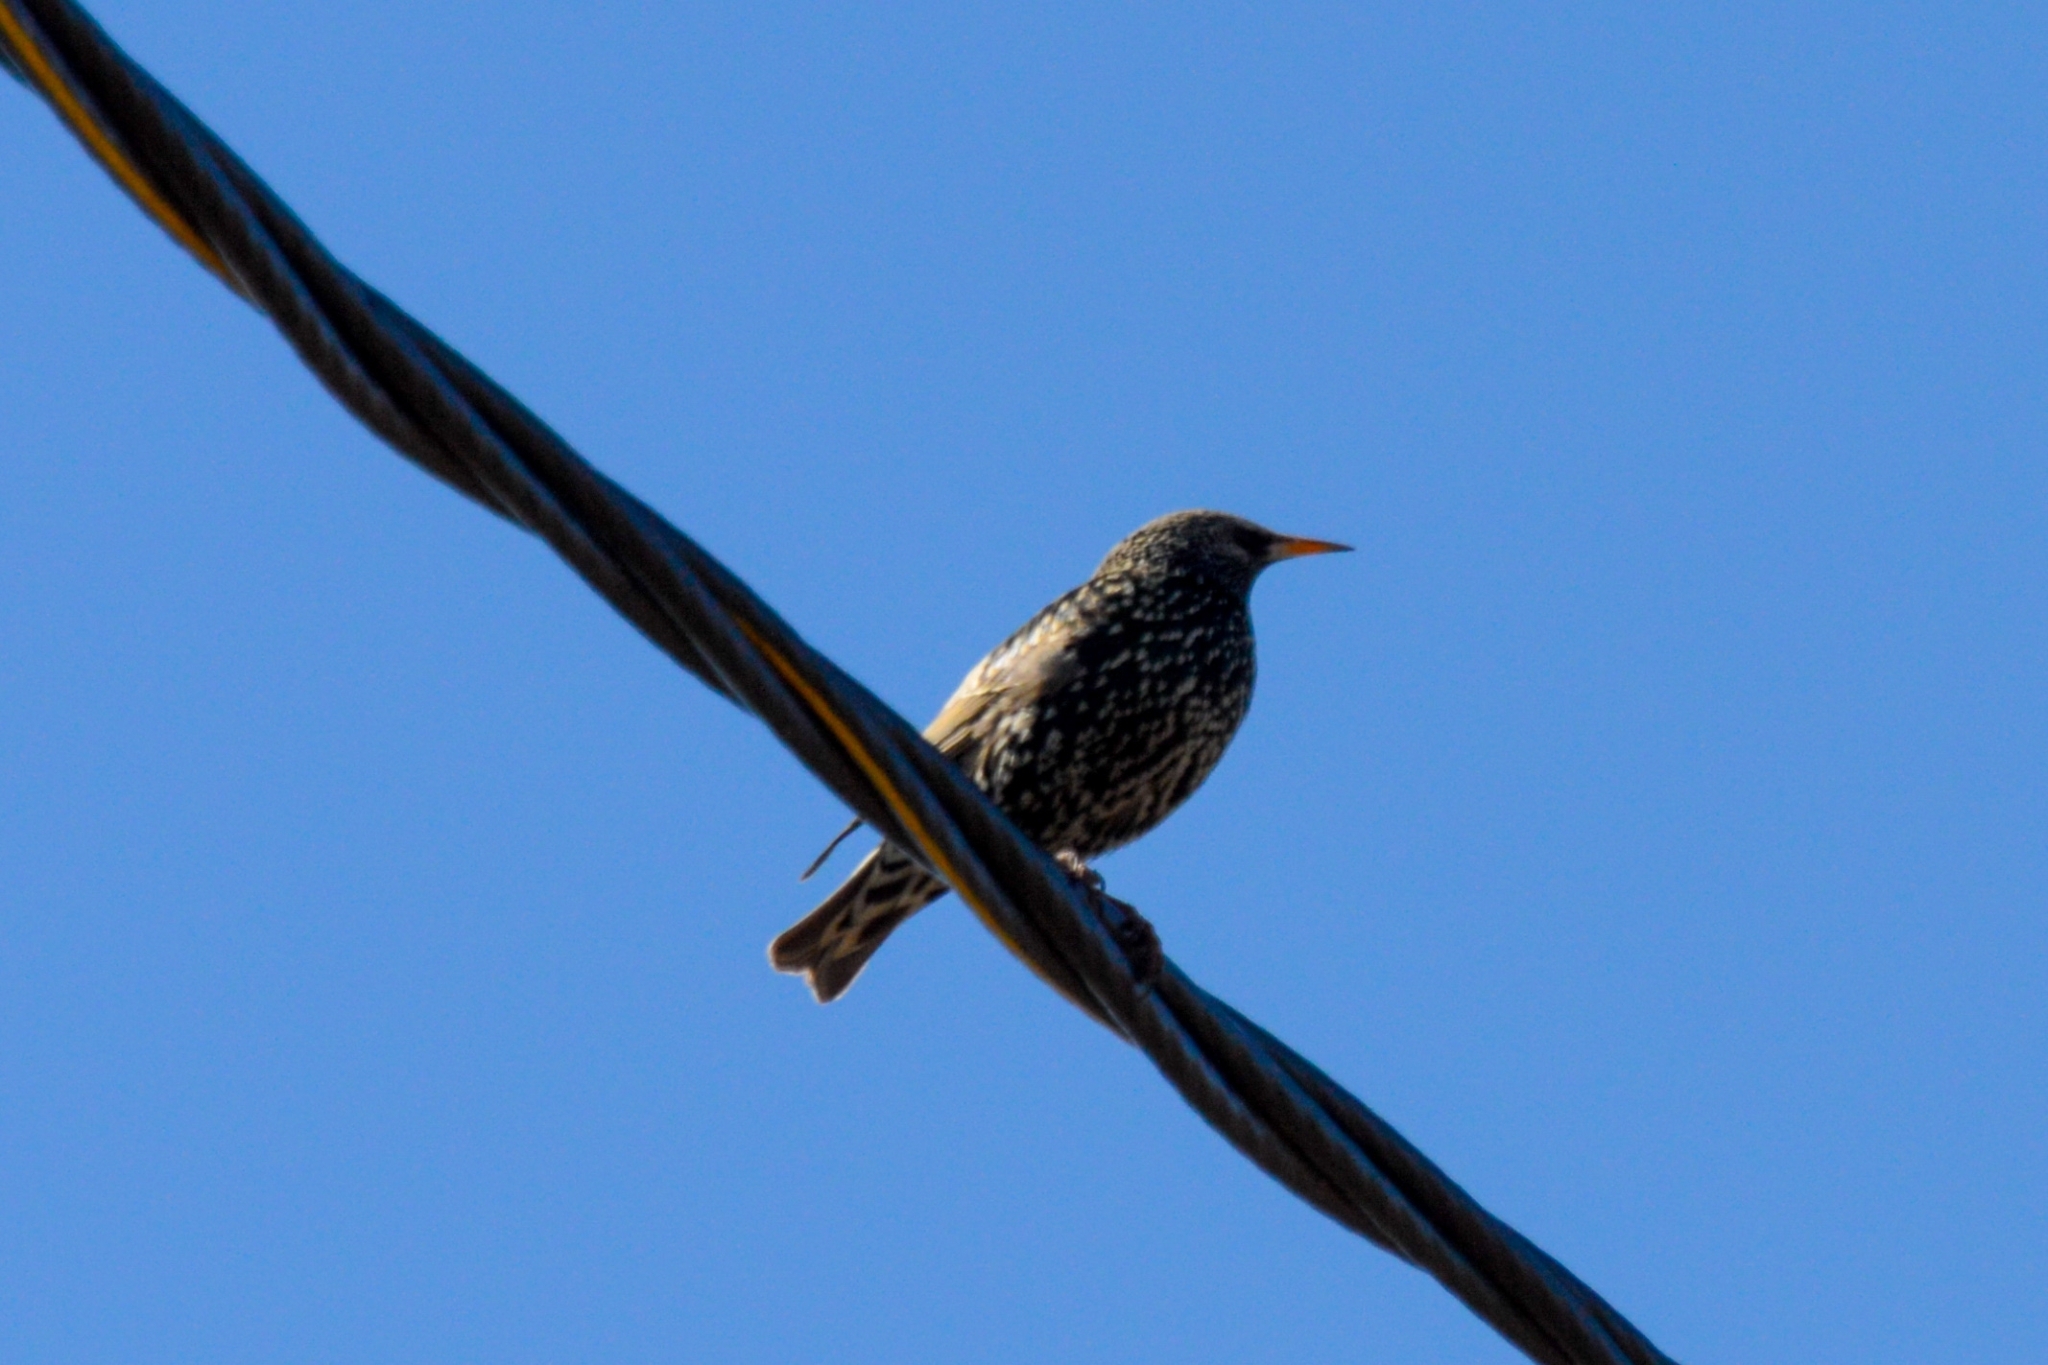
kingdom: Animalia
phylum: Chordata
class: Aves
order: Passeriformes
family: Sturnidae
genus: Sturnus
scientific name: Sturnus vulgaris
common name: Common starling
